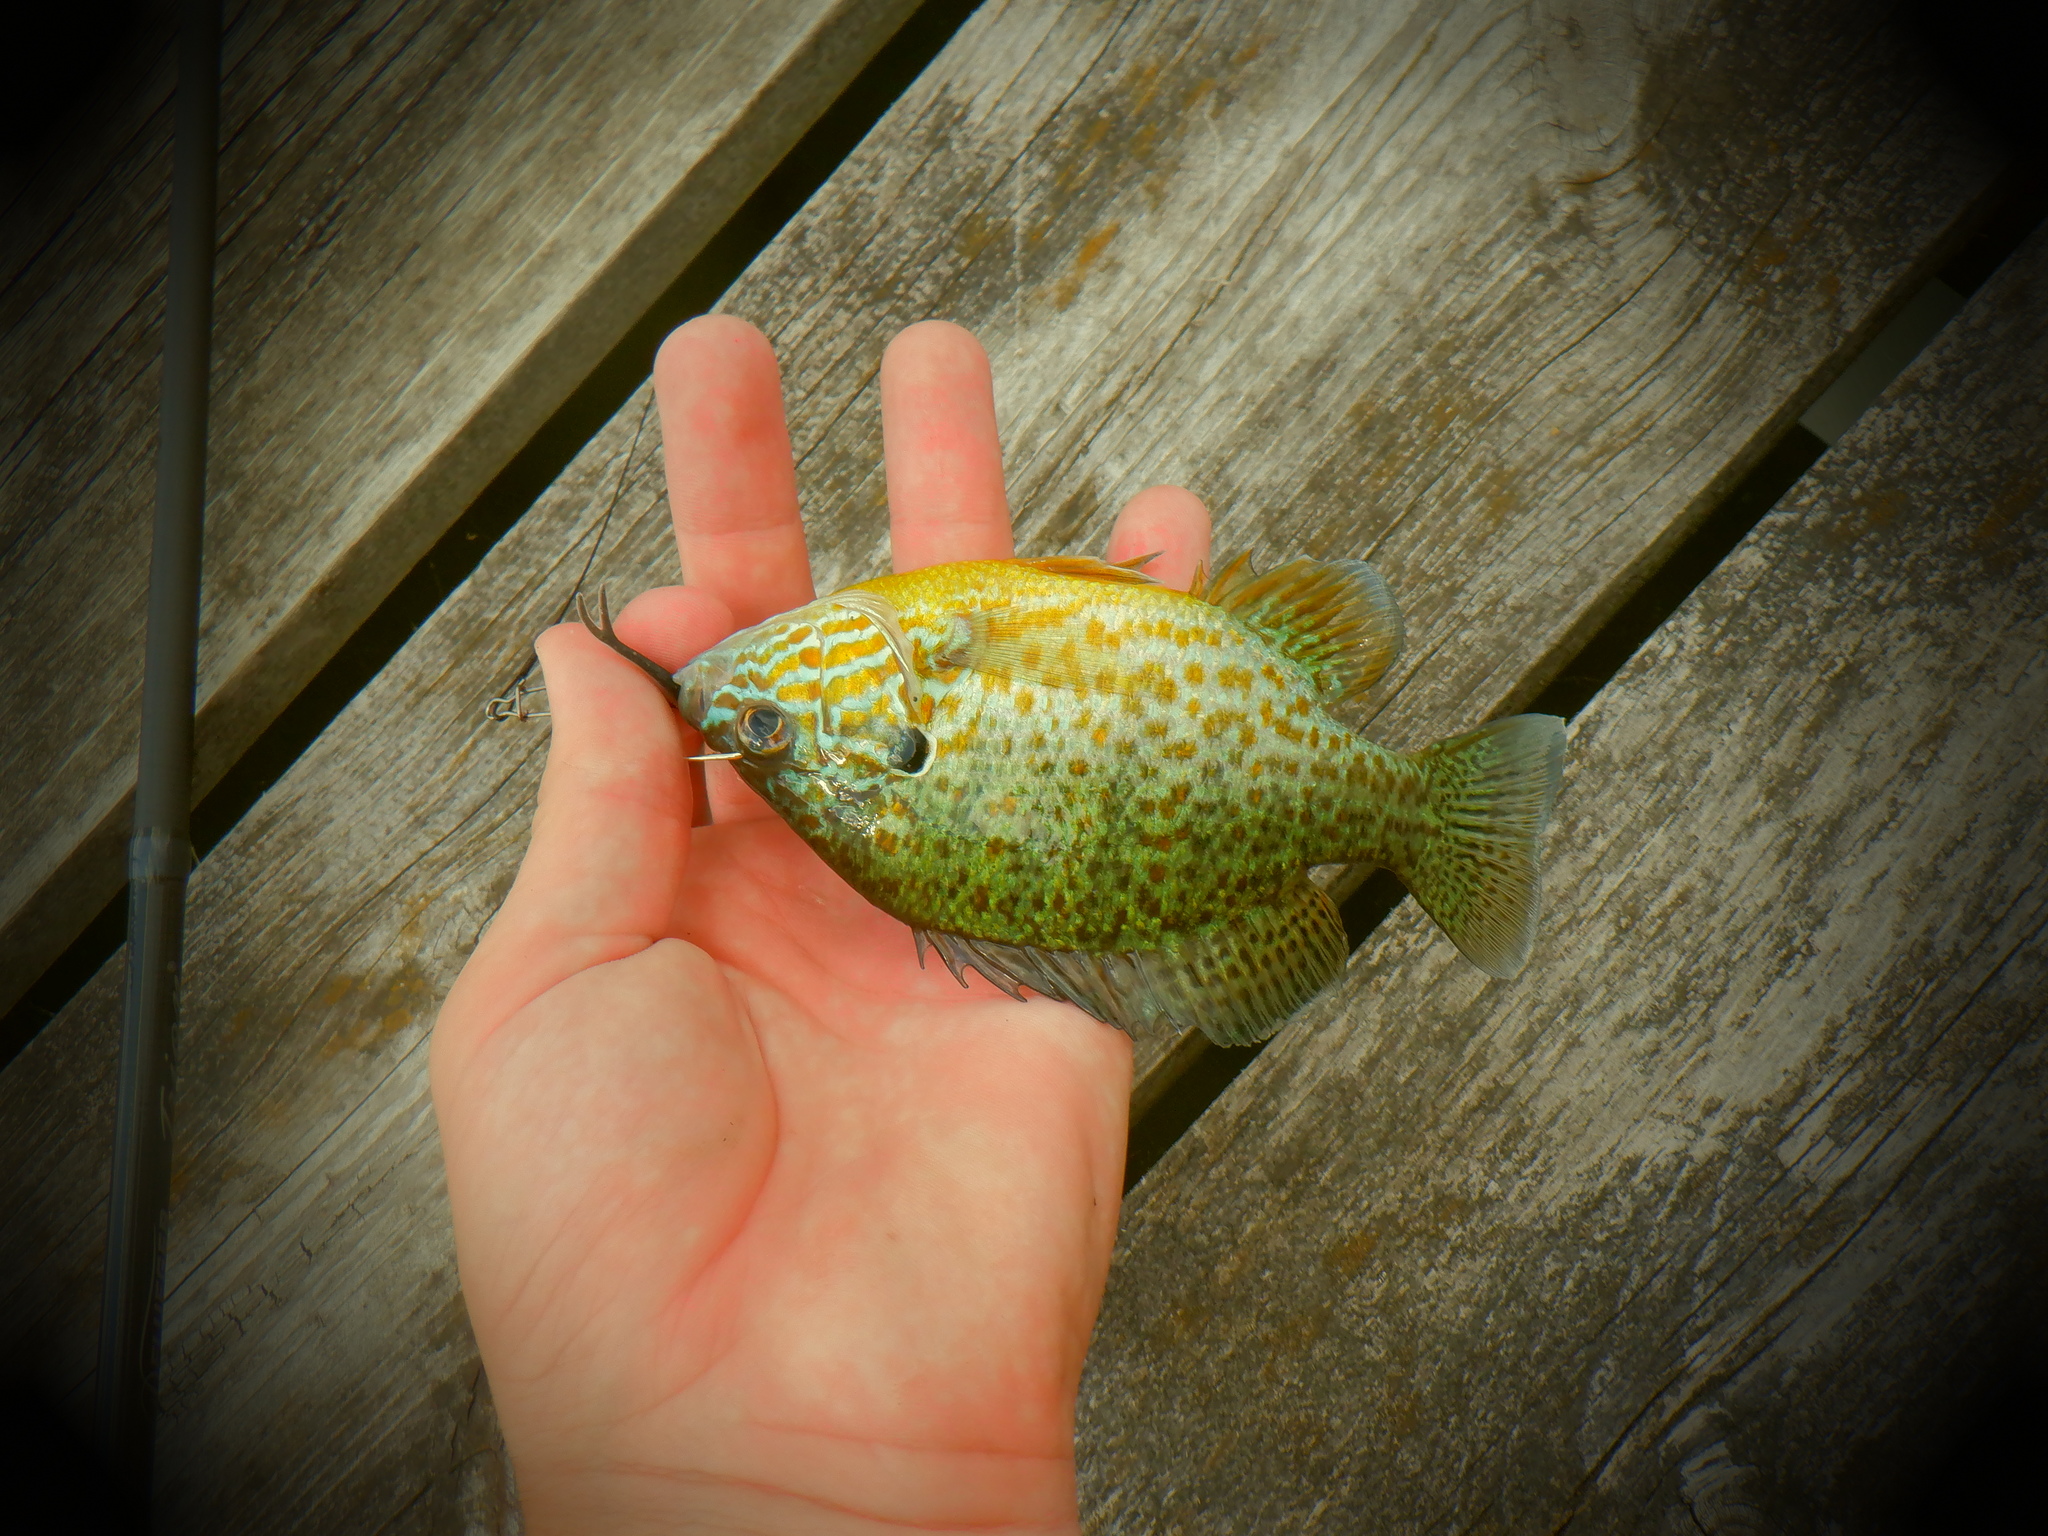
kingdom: Animalia
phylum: Chordata
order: Perciformes
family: Centrarchidae
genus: Lepomis
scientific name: Lepomis gibbosus
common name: Pumpkinseed
